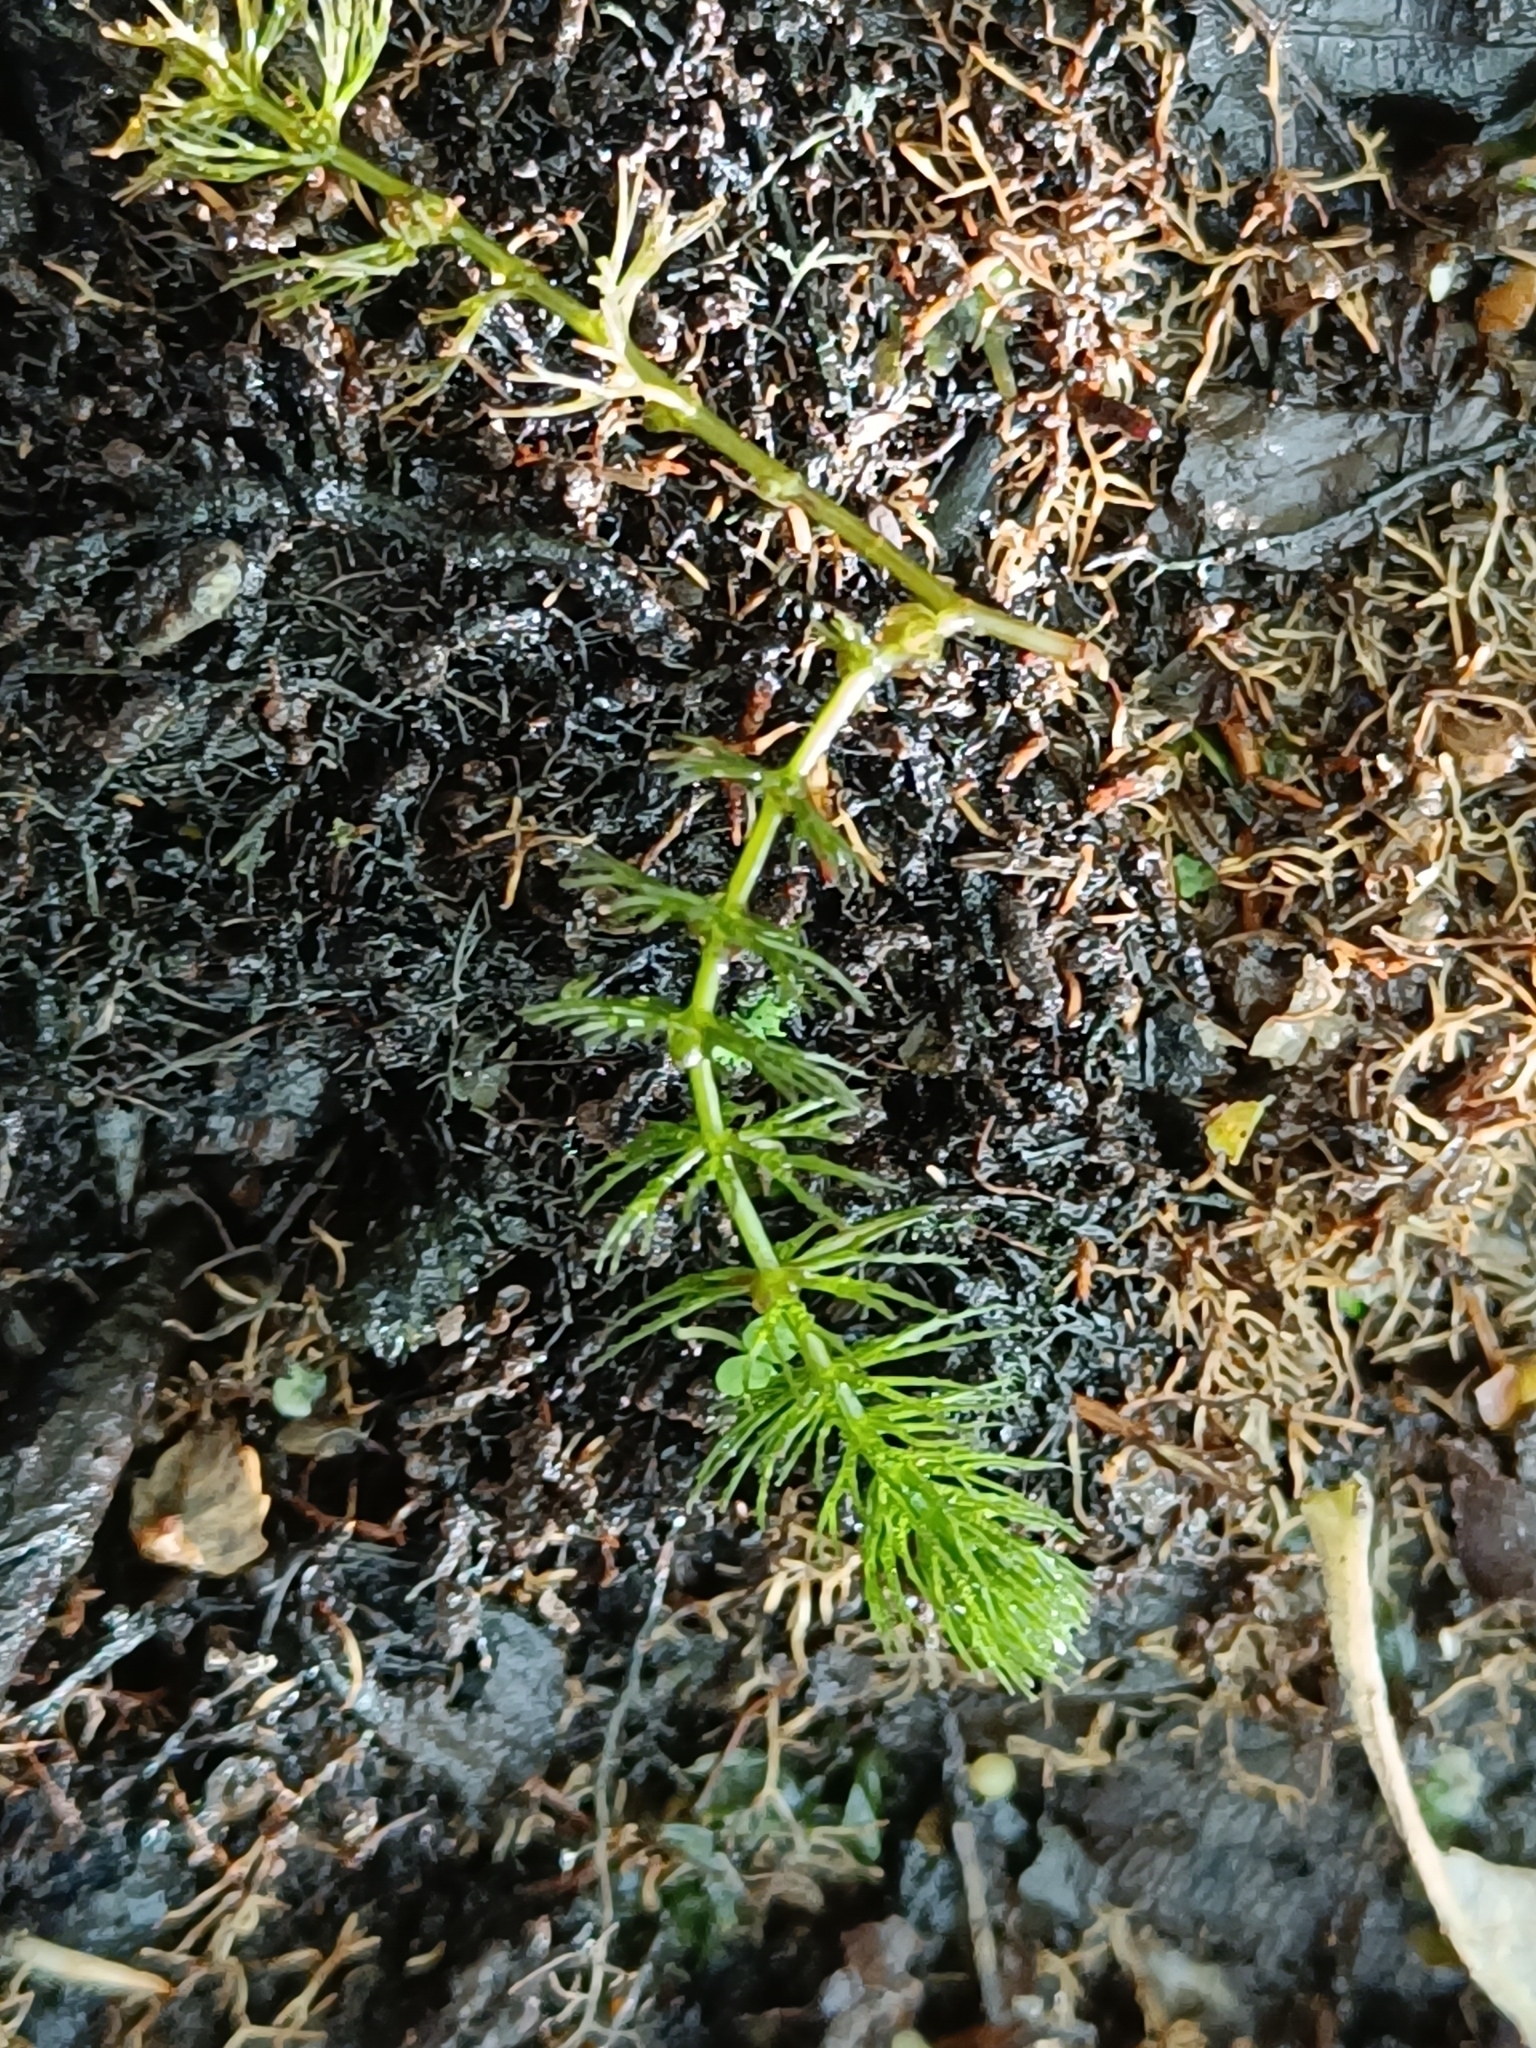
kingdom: Plantae
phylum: Tracheophyta
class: Magnoliopsida
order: Ceratophyllales
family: Ceratophyllaceae
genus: Ceratophyllum
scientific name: Ceratophyllum demersum
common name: Rigid hornwort
